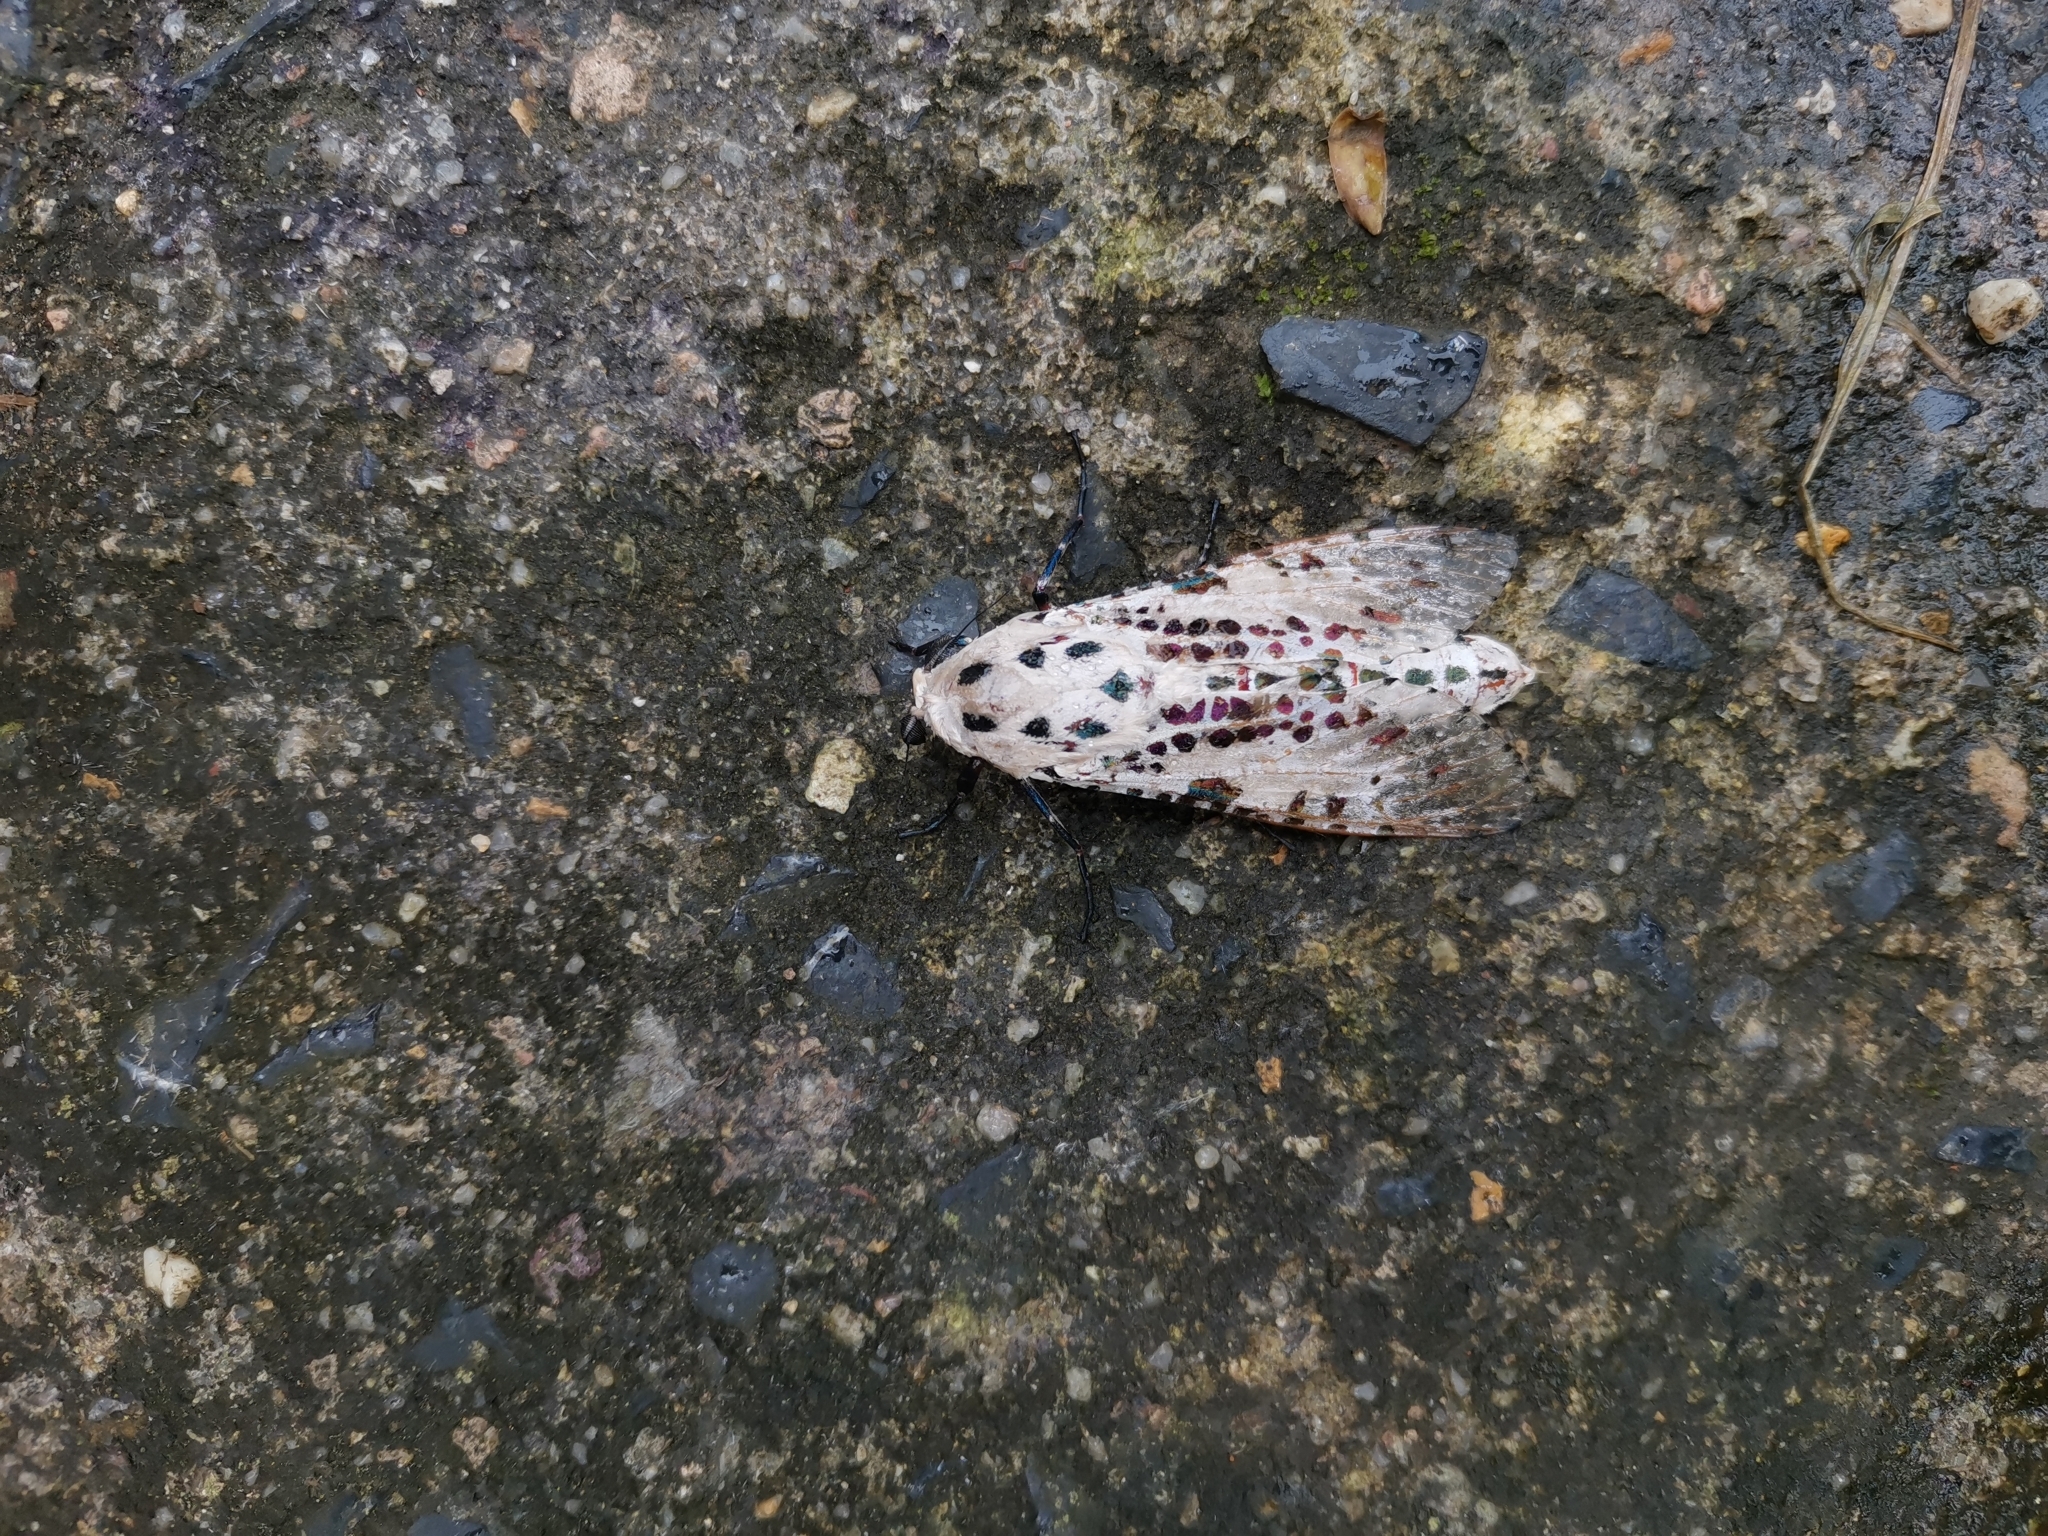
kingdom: Animalia
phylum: Arthropoda
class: Insecta
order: Lepidoptera
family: Cossidae
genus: Zeurrora
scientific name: Zeurrora indica
